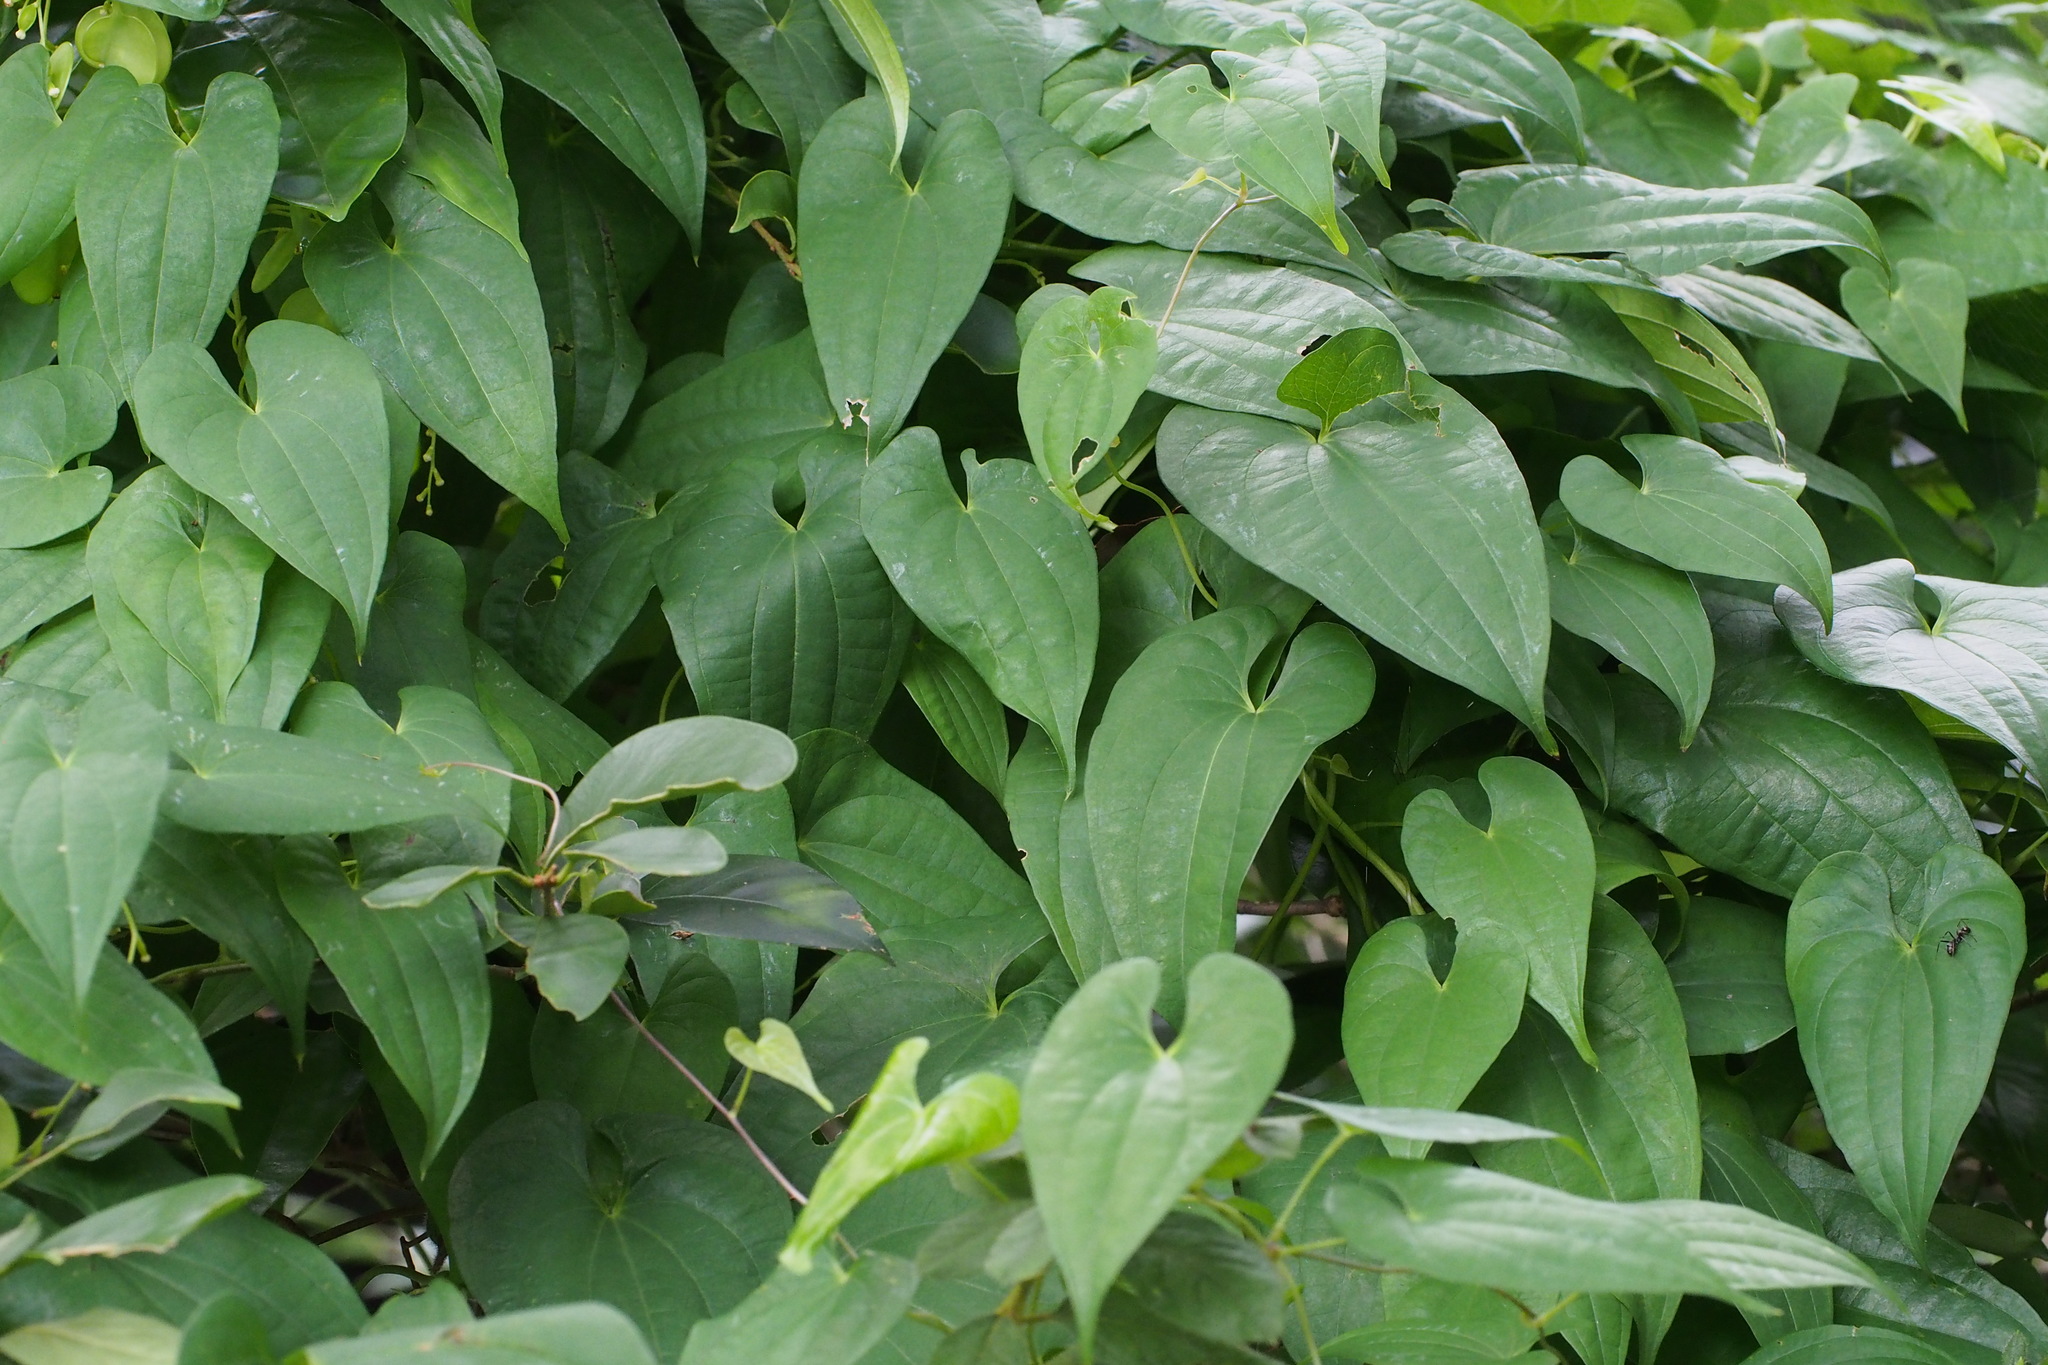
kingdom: Plantae
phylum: Tracheophyta
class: Liliopsida
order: Dioscoreales
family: Dioscoreaceae
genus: Dioscorea
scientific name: Dioscorea japonica
